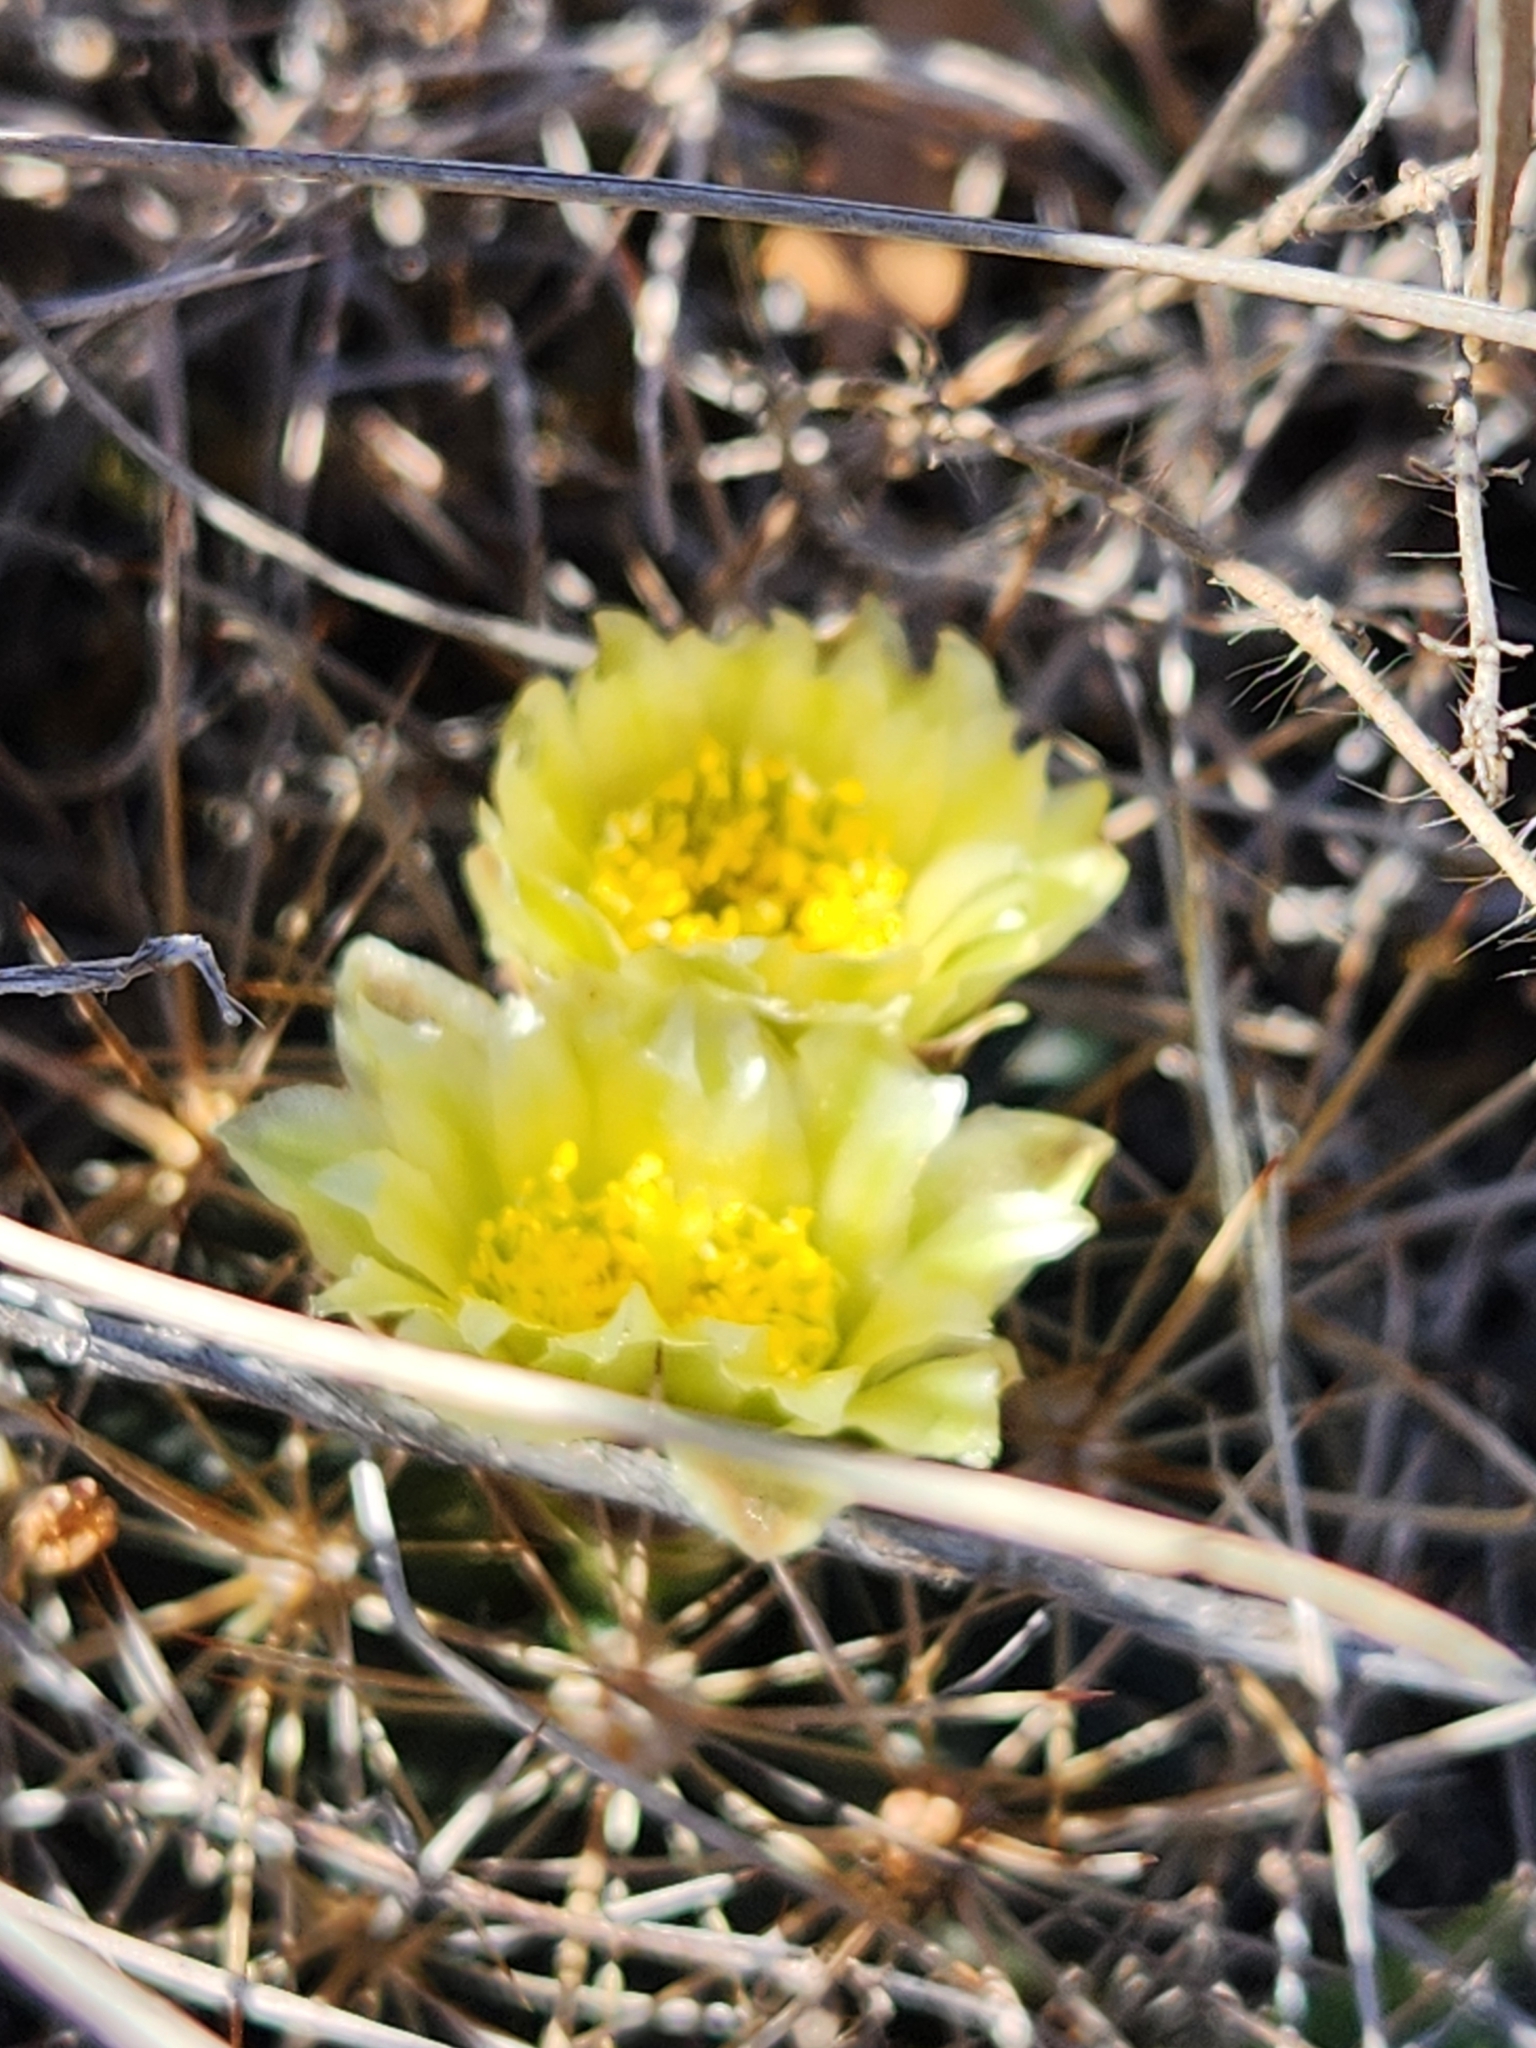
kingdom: Plantae
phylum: Tracheophyta
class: Magnoliopsida
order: Caryophyllales
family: Cactaceae
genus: Sclerocactus
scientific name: Sclerocactus brevihamatus
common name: Engelmann's fishhook cactus
